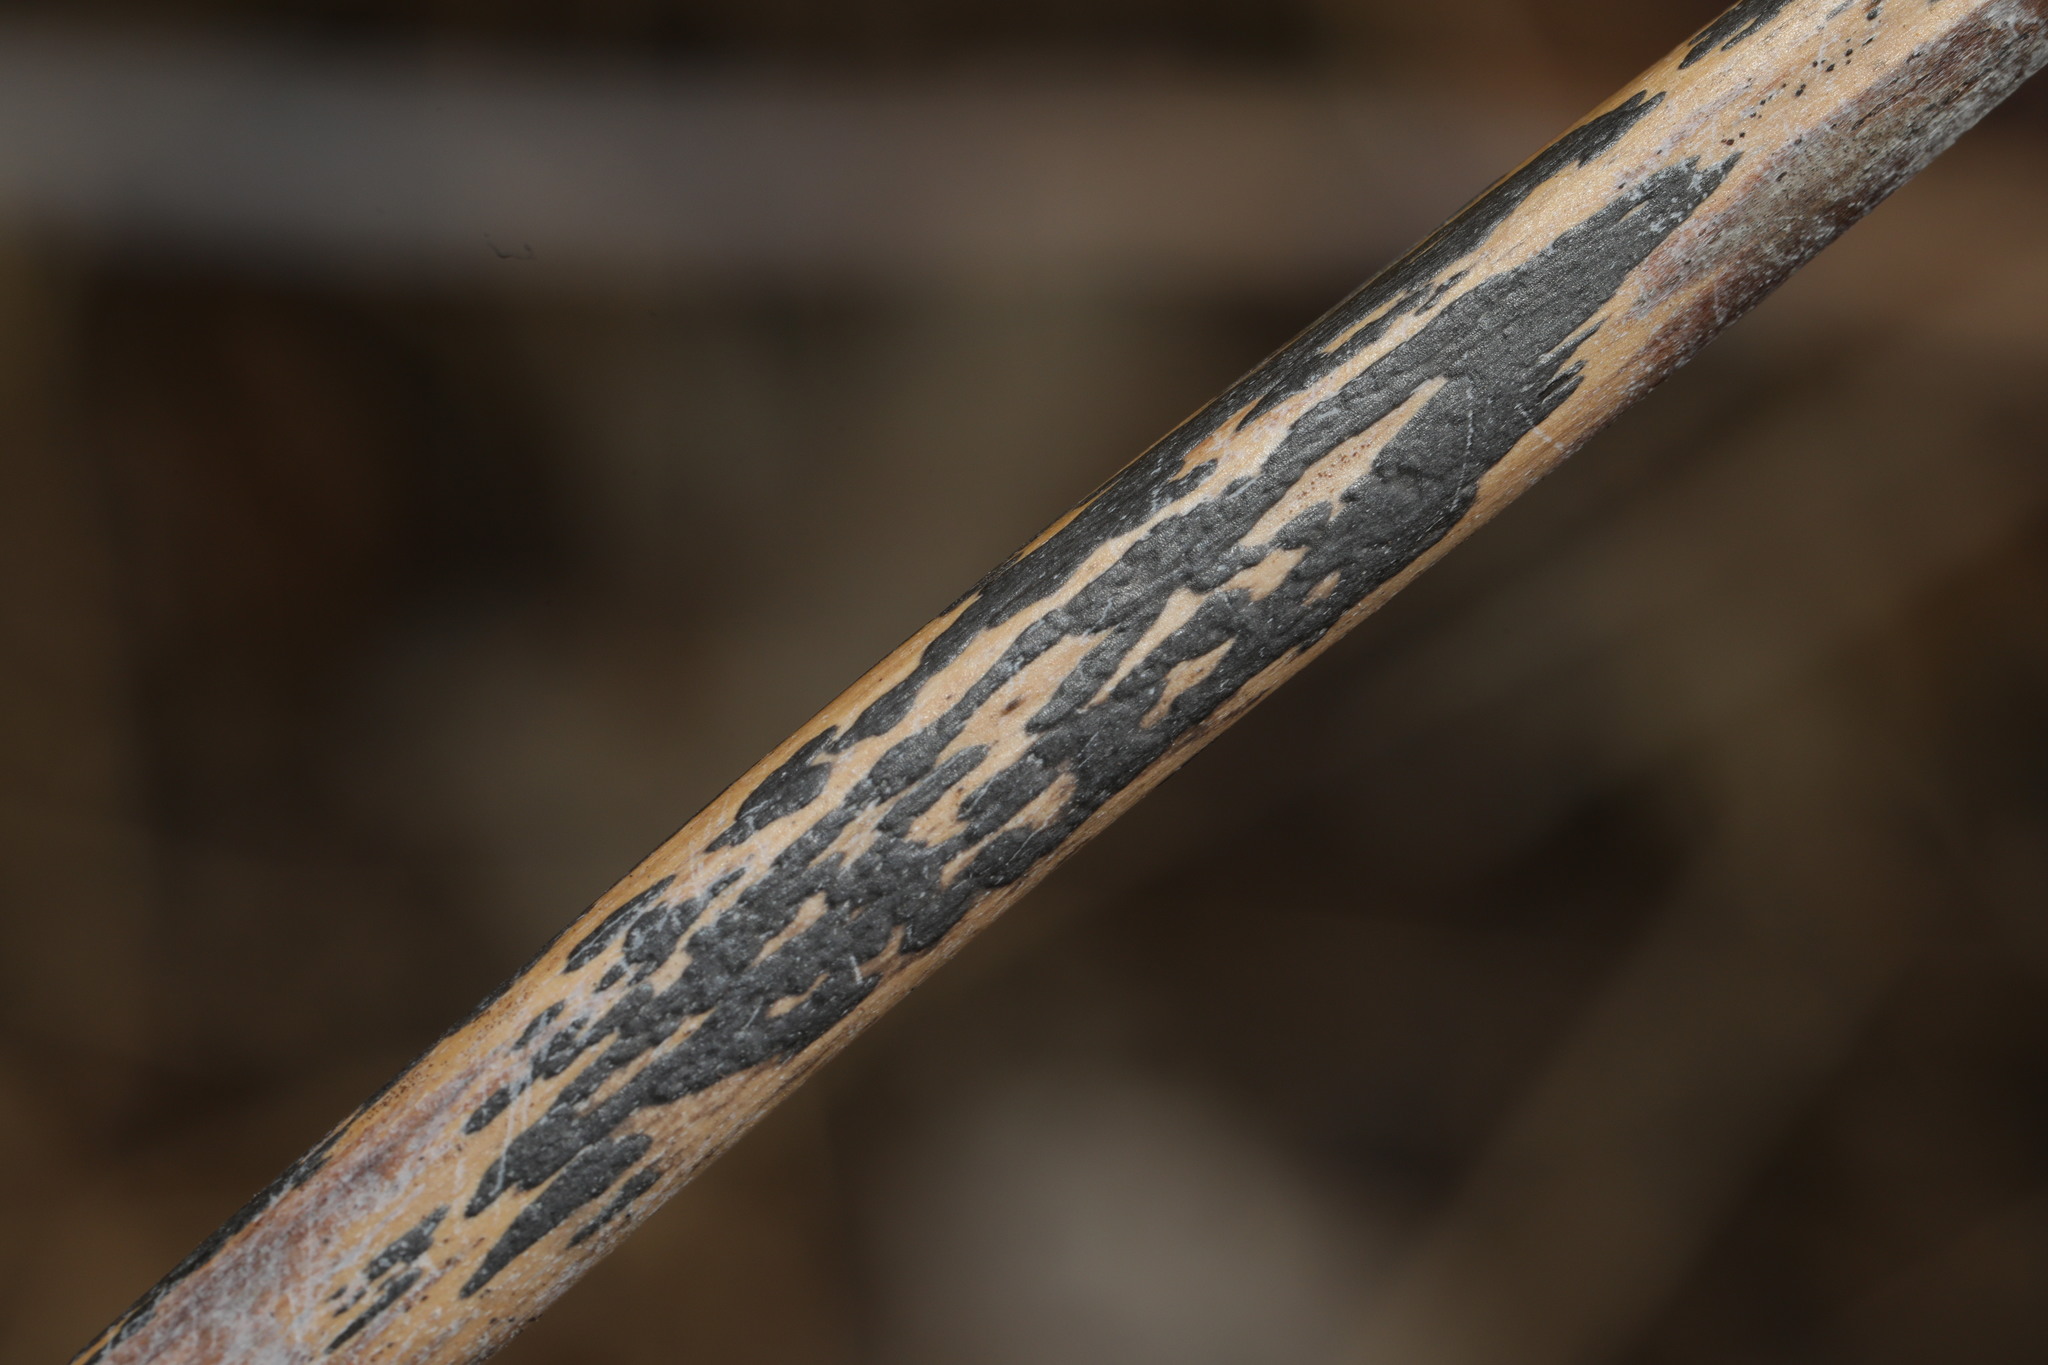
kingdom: Fungi
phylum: Ascomycota
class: Dothideomycetes
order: Pleosporales
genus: Rhopographus
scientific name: Rhopographus filicinus
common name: Bracken map
